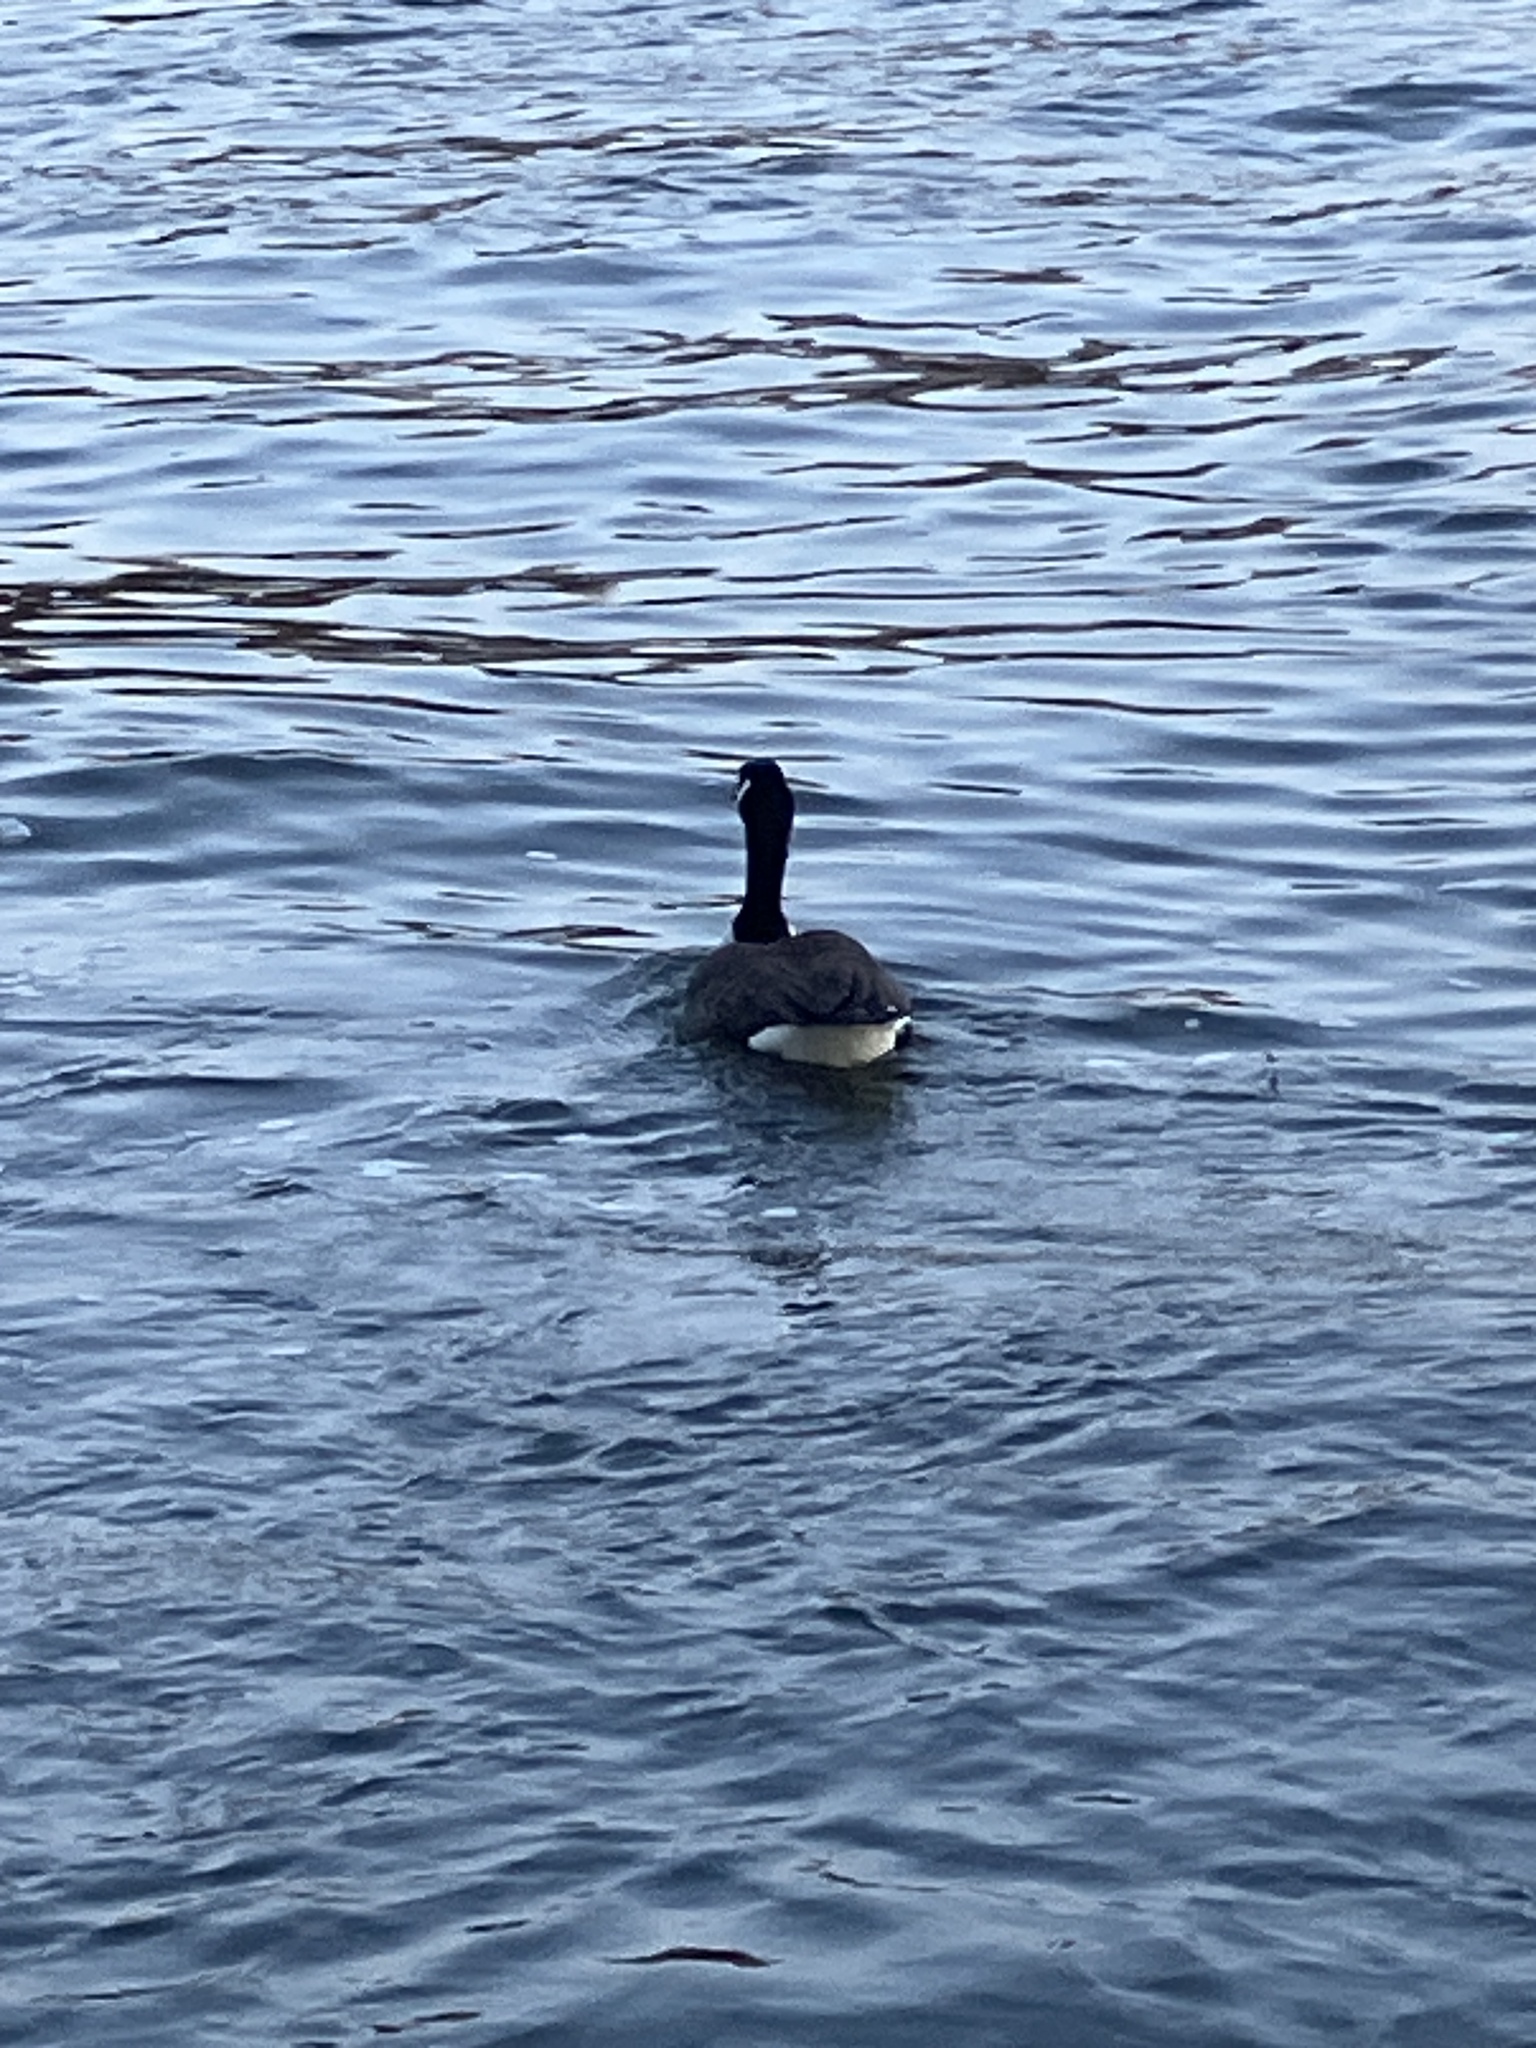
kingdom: Animalia
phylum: Chordata
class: Aves
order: Anseriformes
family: Anatidae
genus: Branta
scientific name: Branta canadensis
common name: Canada goose
